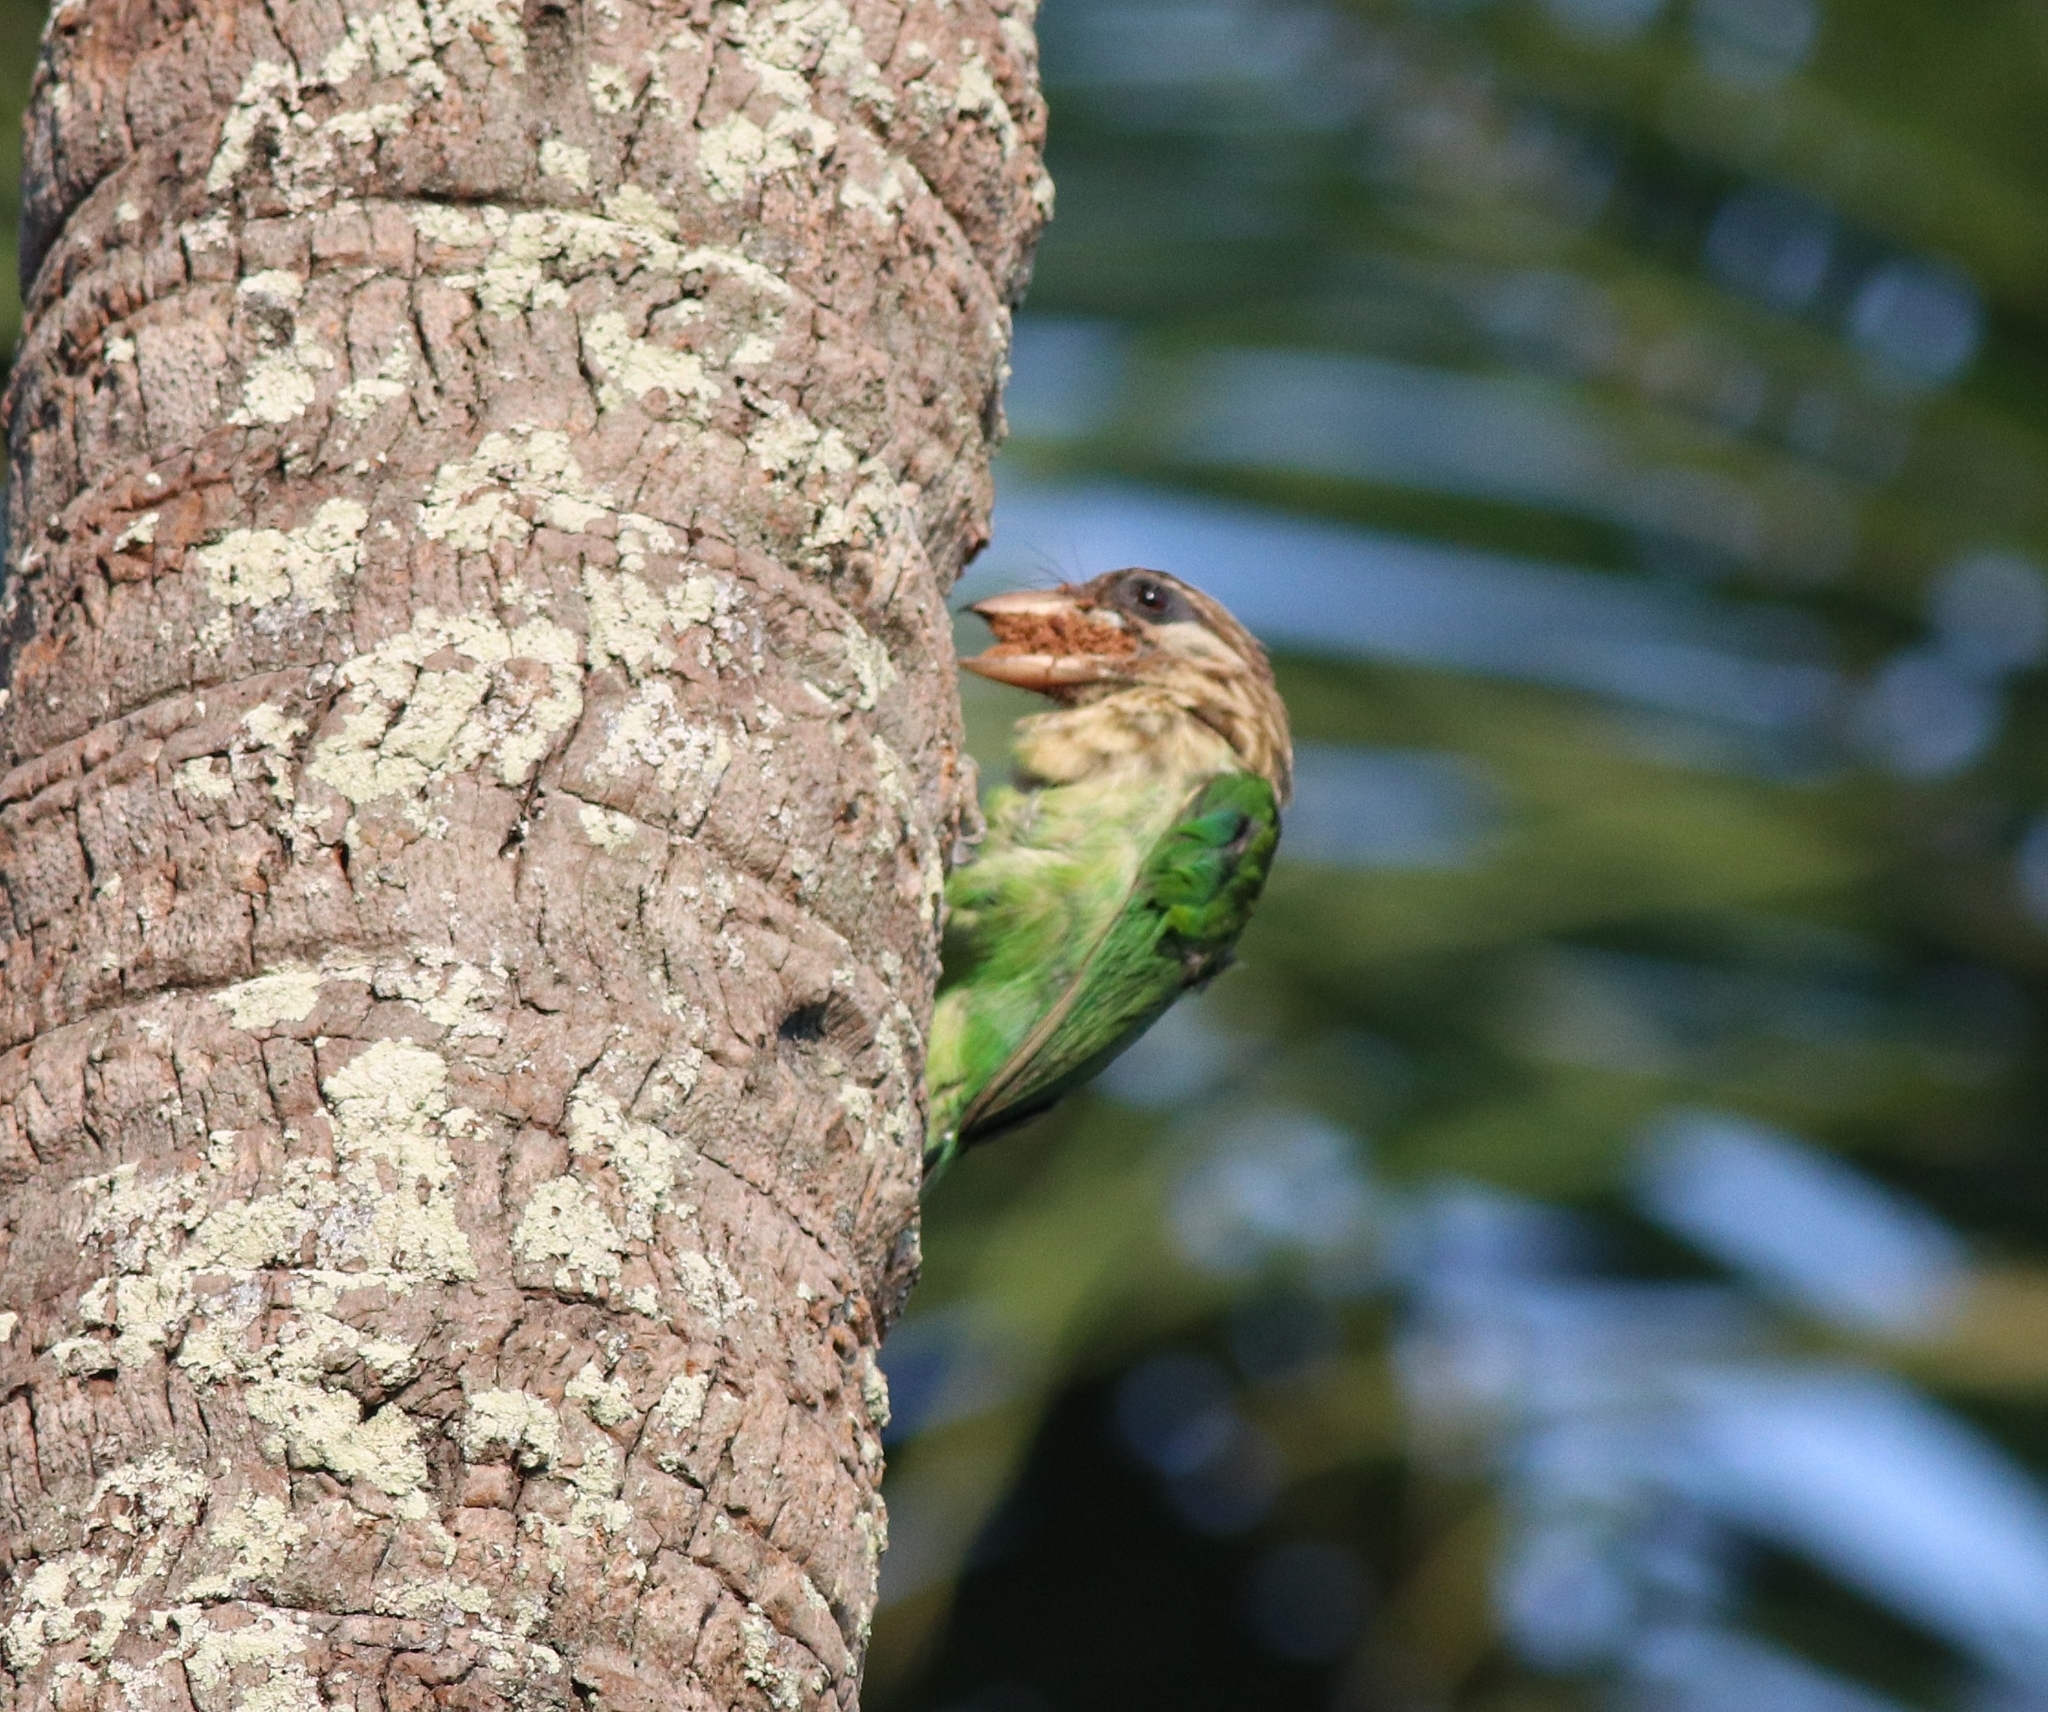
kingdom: Animalia
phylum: Chordata
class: Aves
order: Piciformes
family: Megalaimidae
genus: Psilopogon
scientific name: Psilopogon viridis
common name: White-cheeked barbet
